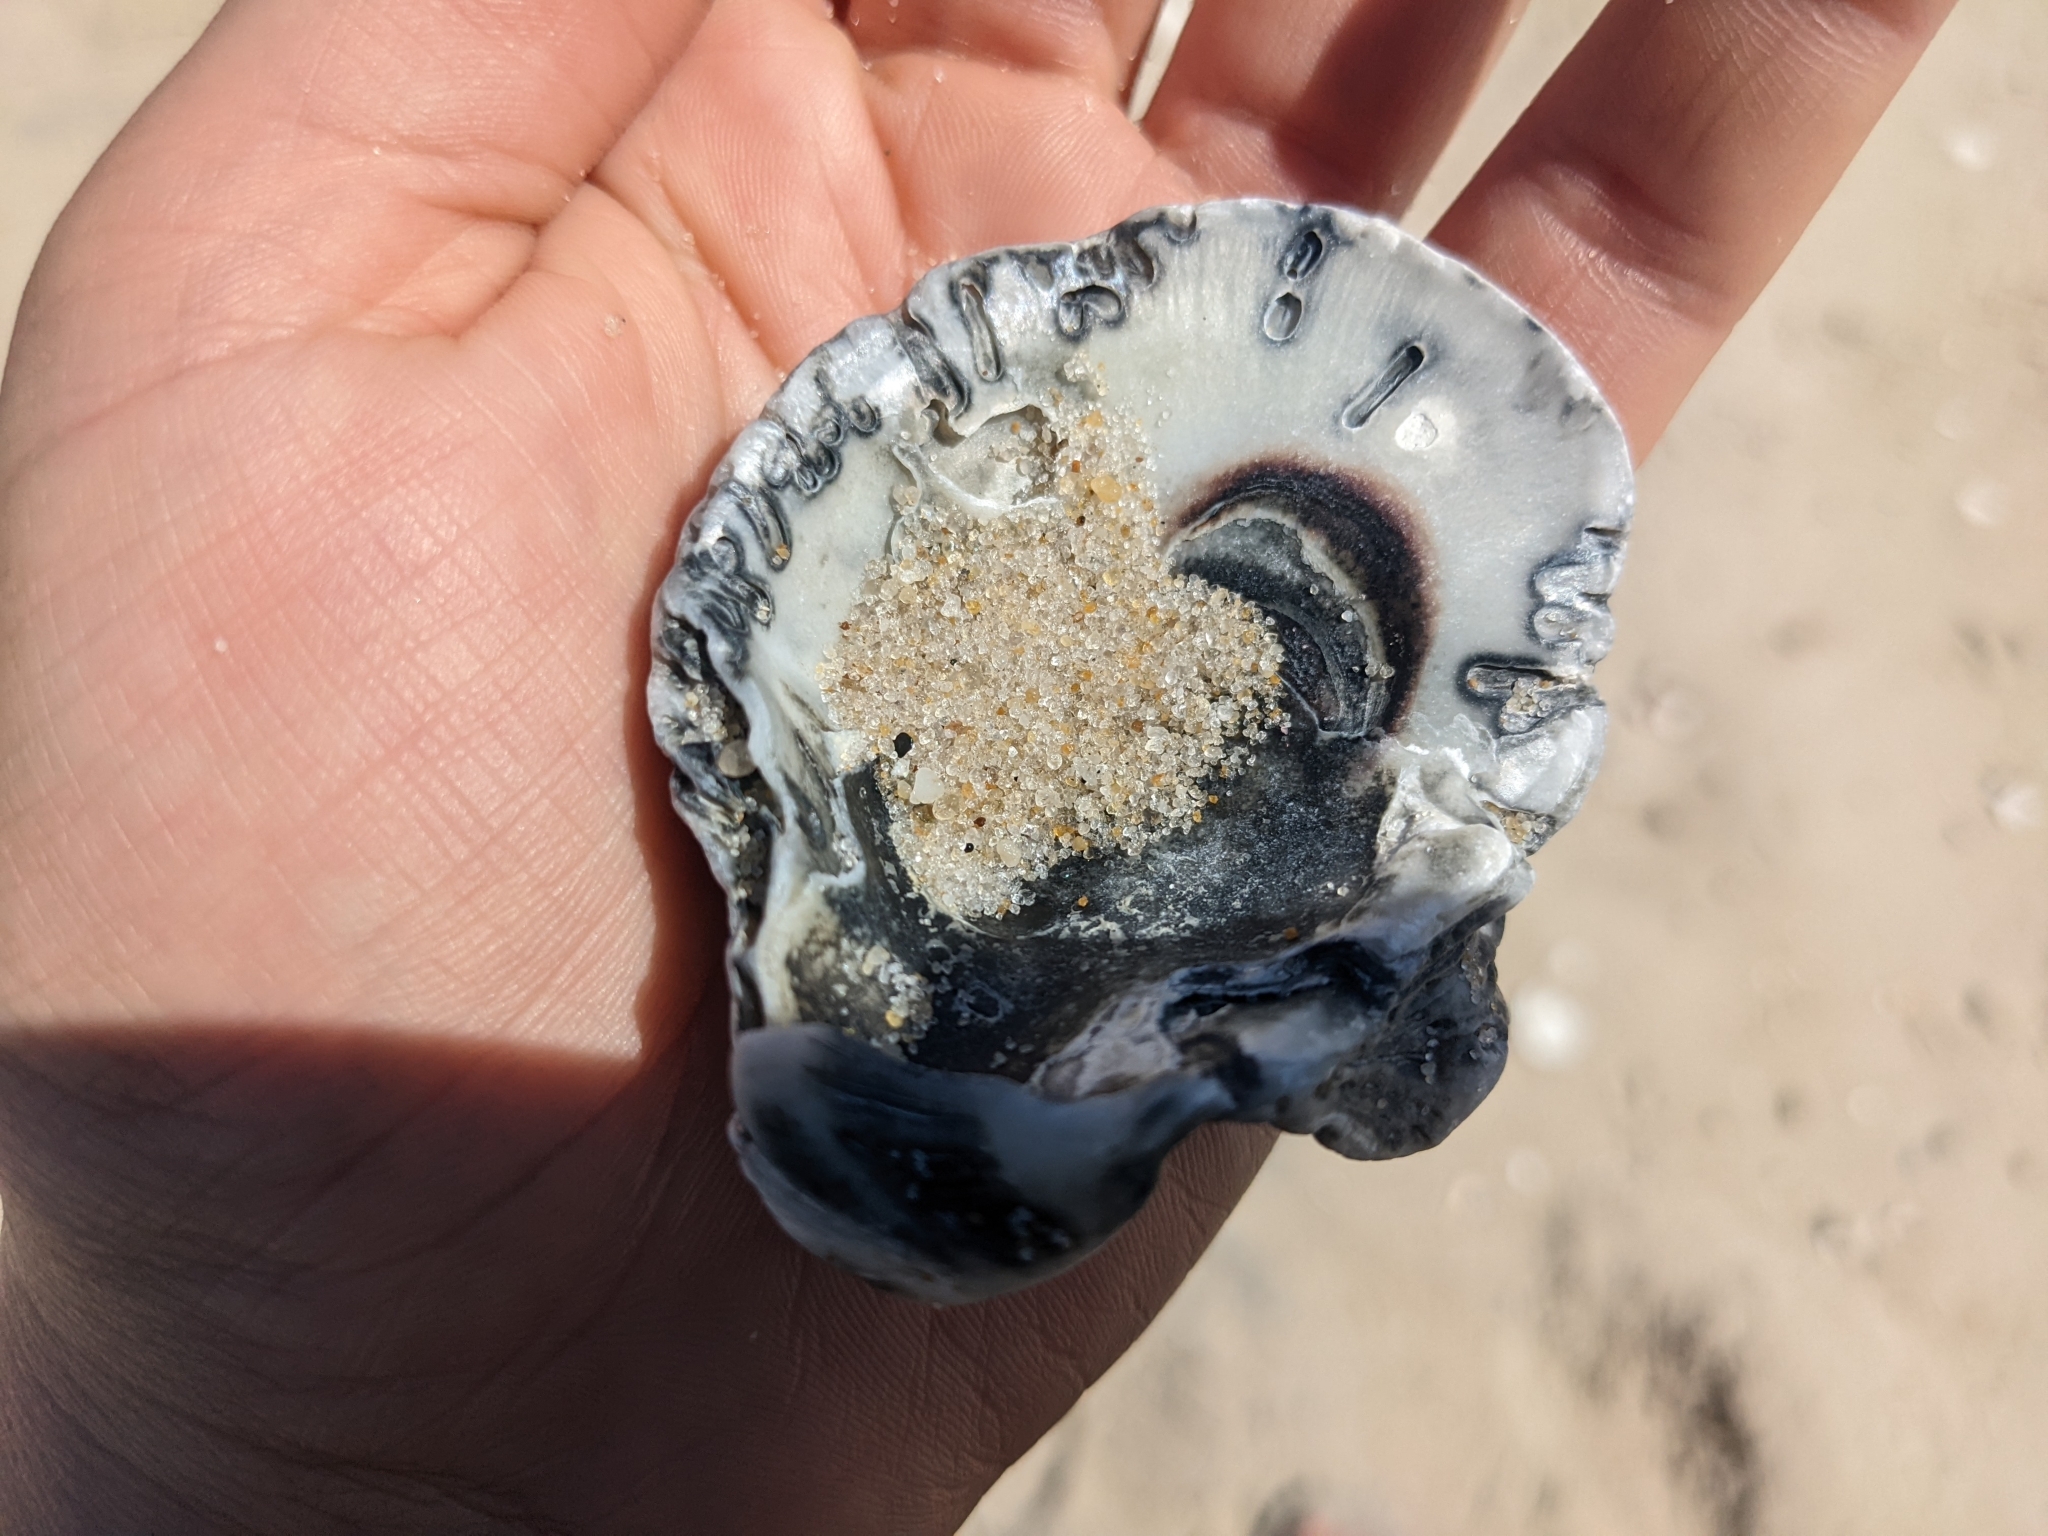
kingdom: Animalia
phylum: Mollusca
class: Bivalvia
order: Ostreida
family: Ostreidae
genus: Crassostrea
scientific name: Crassostrea virginica
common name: American oyster
